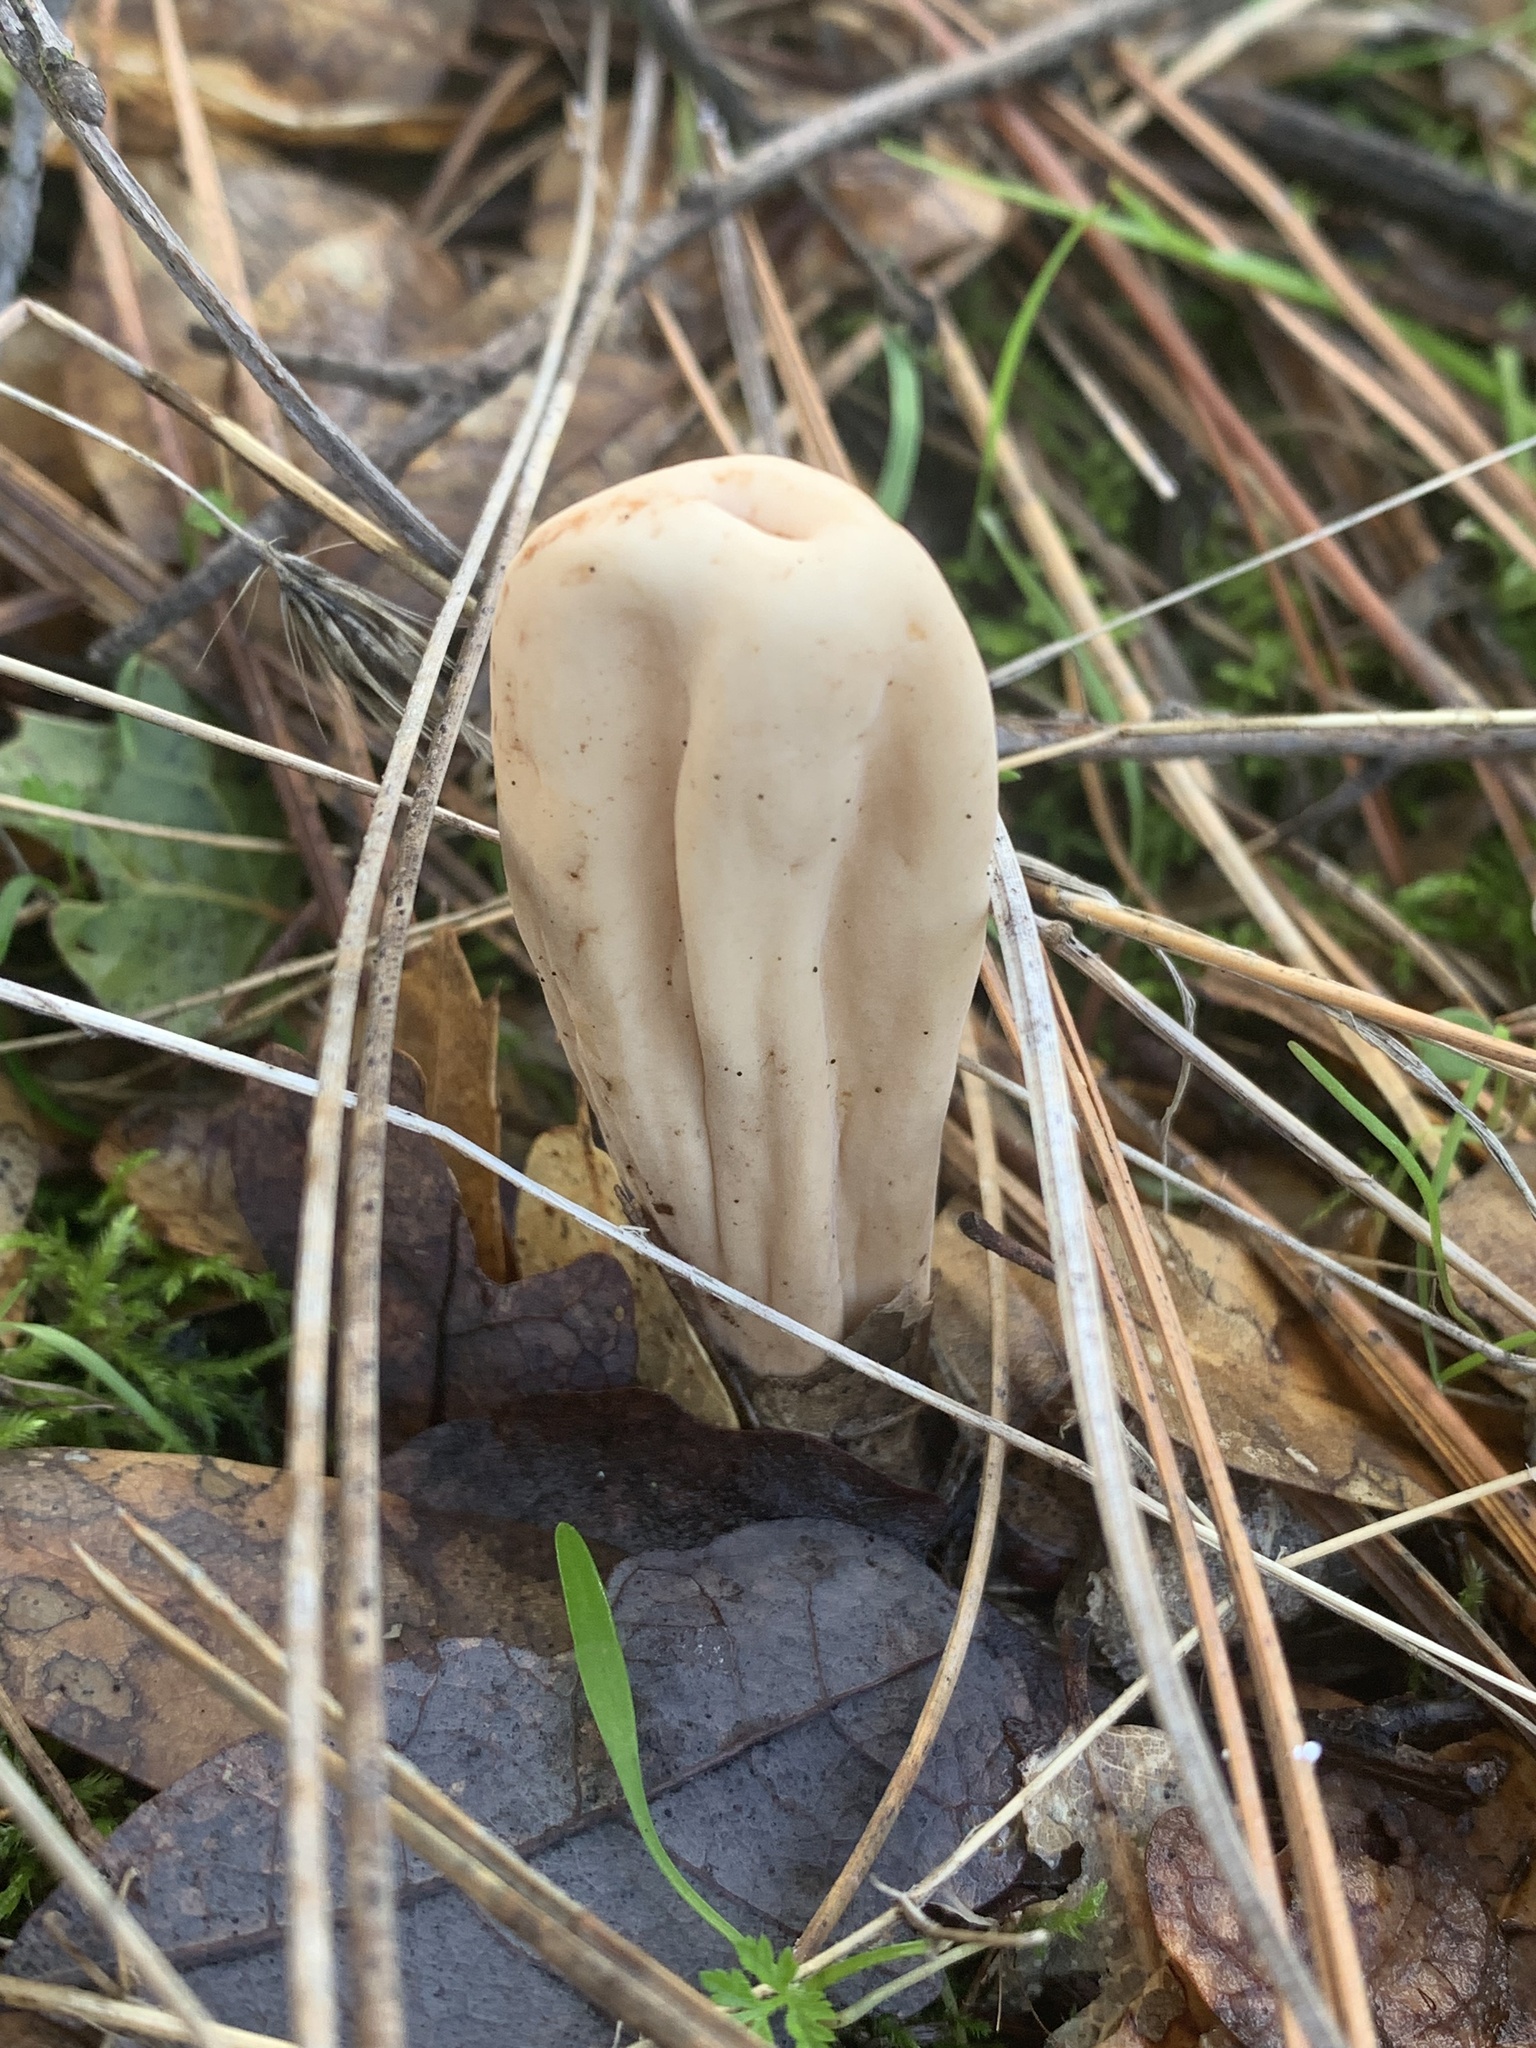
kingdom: Fungi
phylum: Basidiomycota
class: Agaricomycetes
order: Gomphales
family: Clavariadelphaceae
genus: Clavariadelphus
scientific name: Clavariadelphus occidentalis
